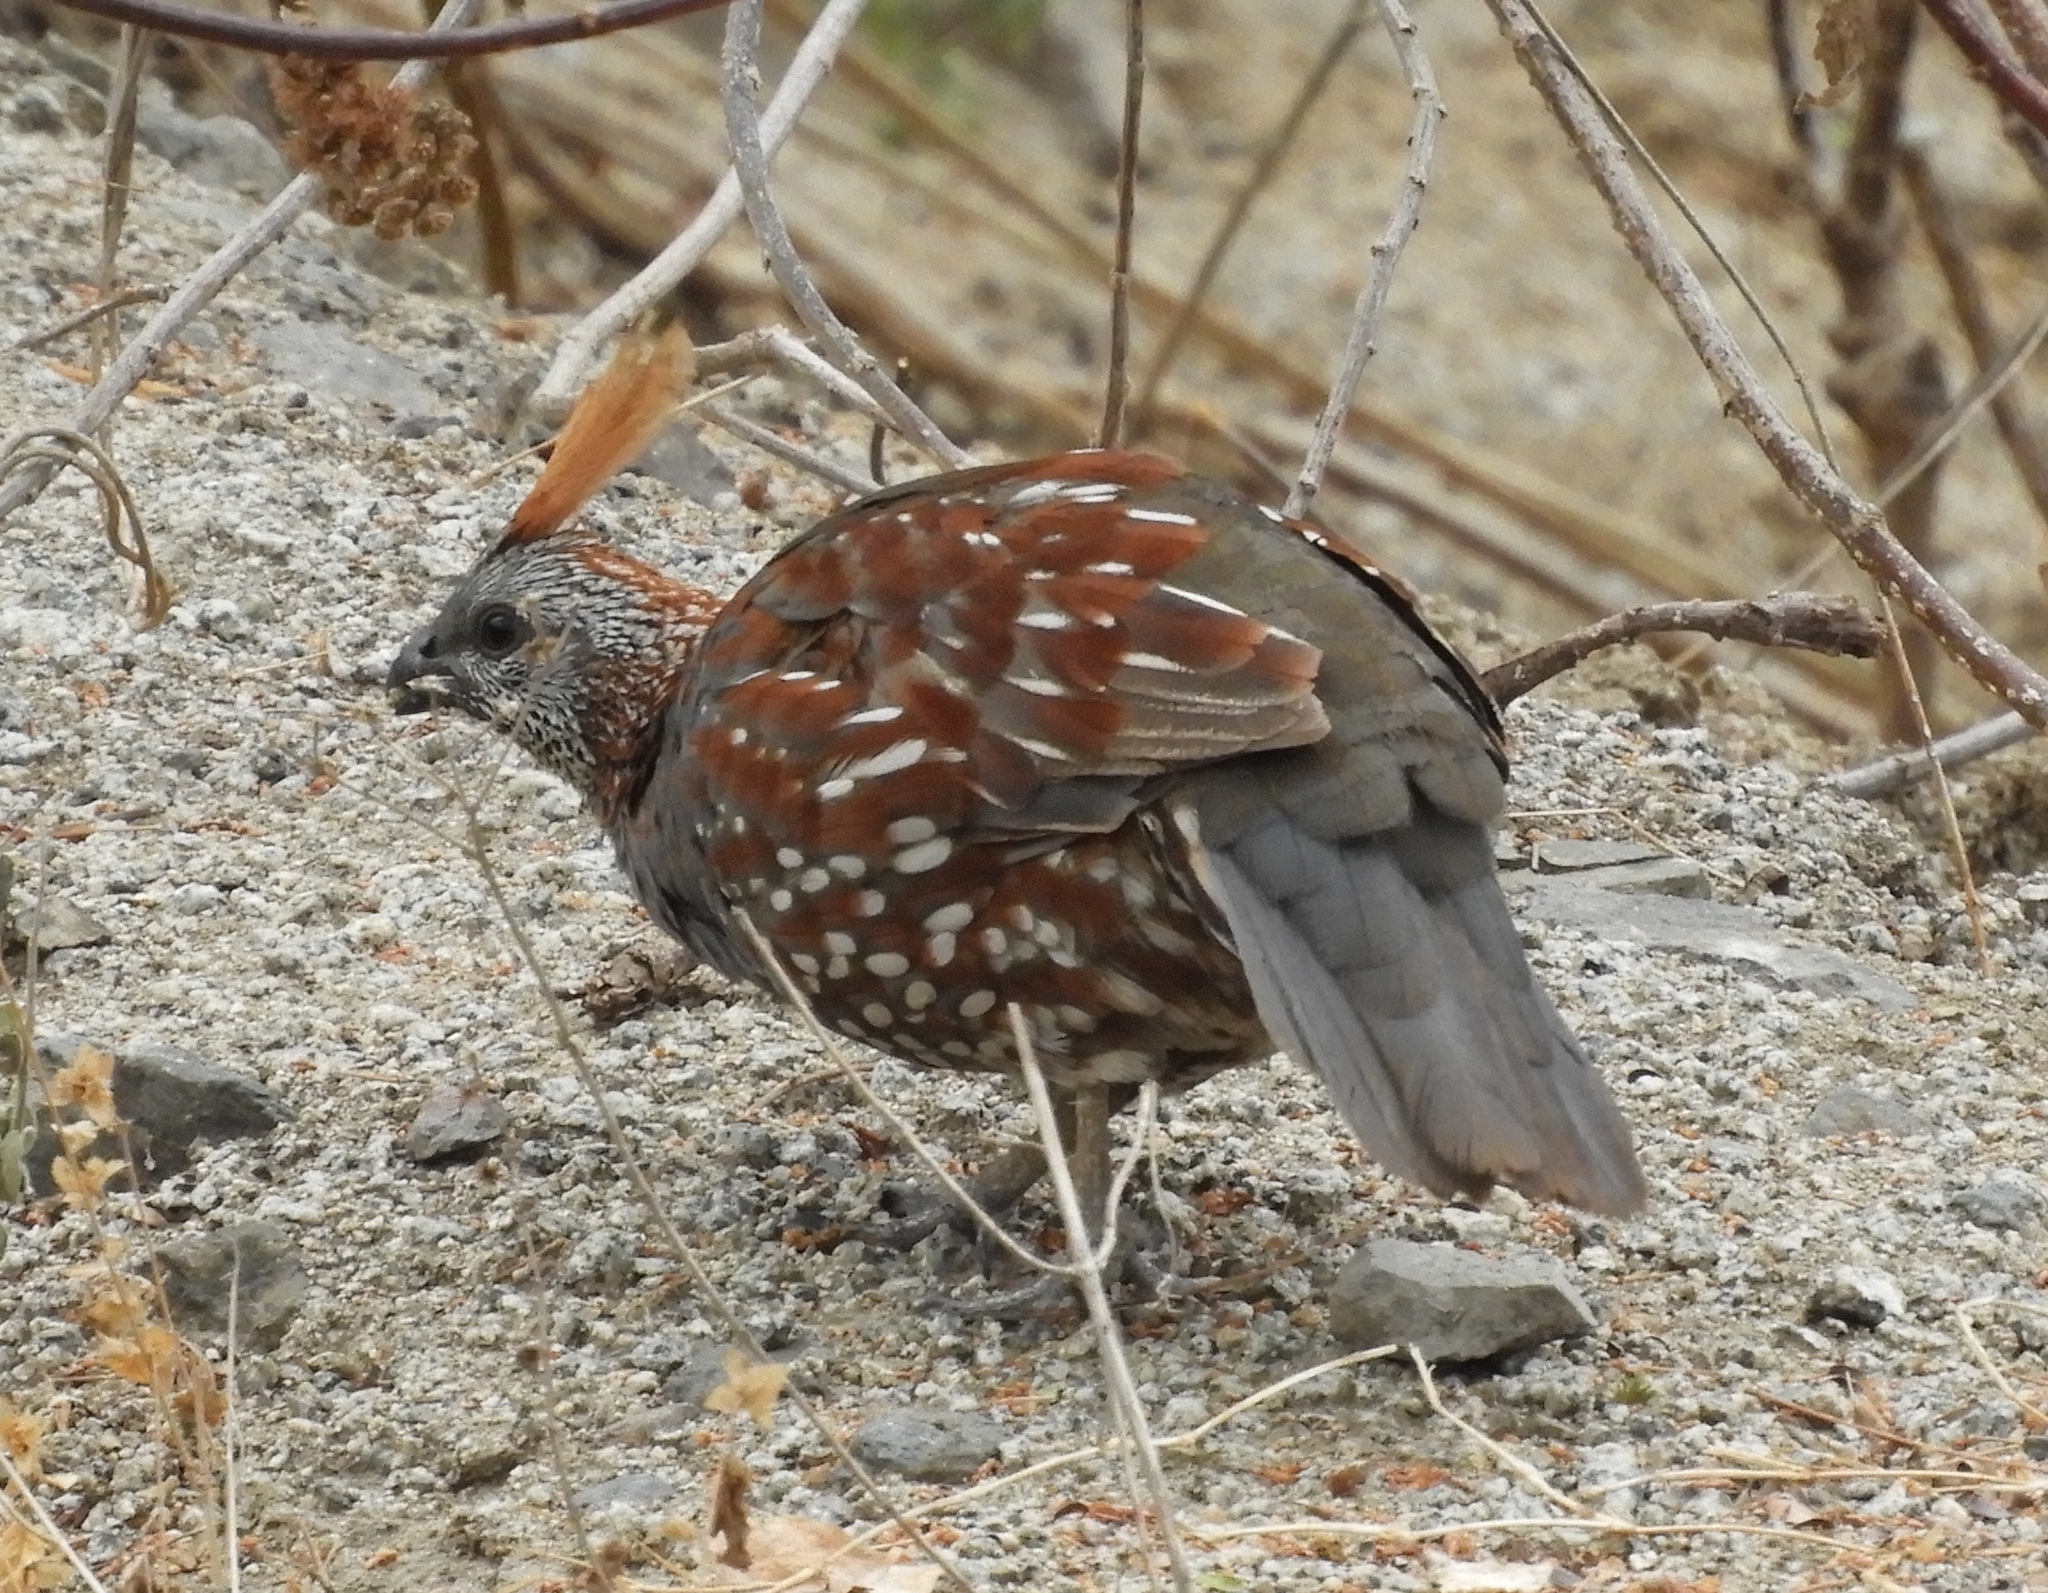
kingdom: Animalia
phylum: Chordata
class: Aves
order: Galliformes
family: Odontophoridae
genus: Callipepla
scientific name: Callipepla douglasii
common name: Elegant quail
